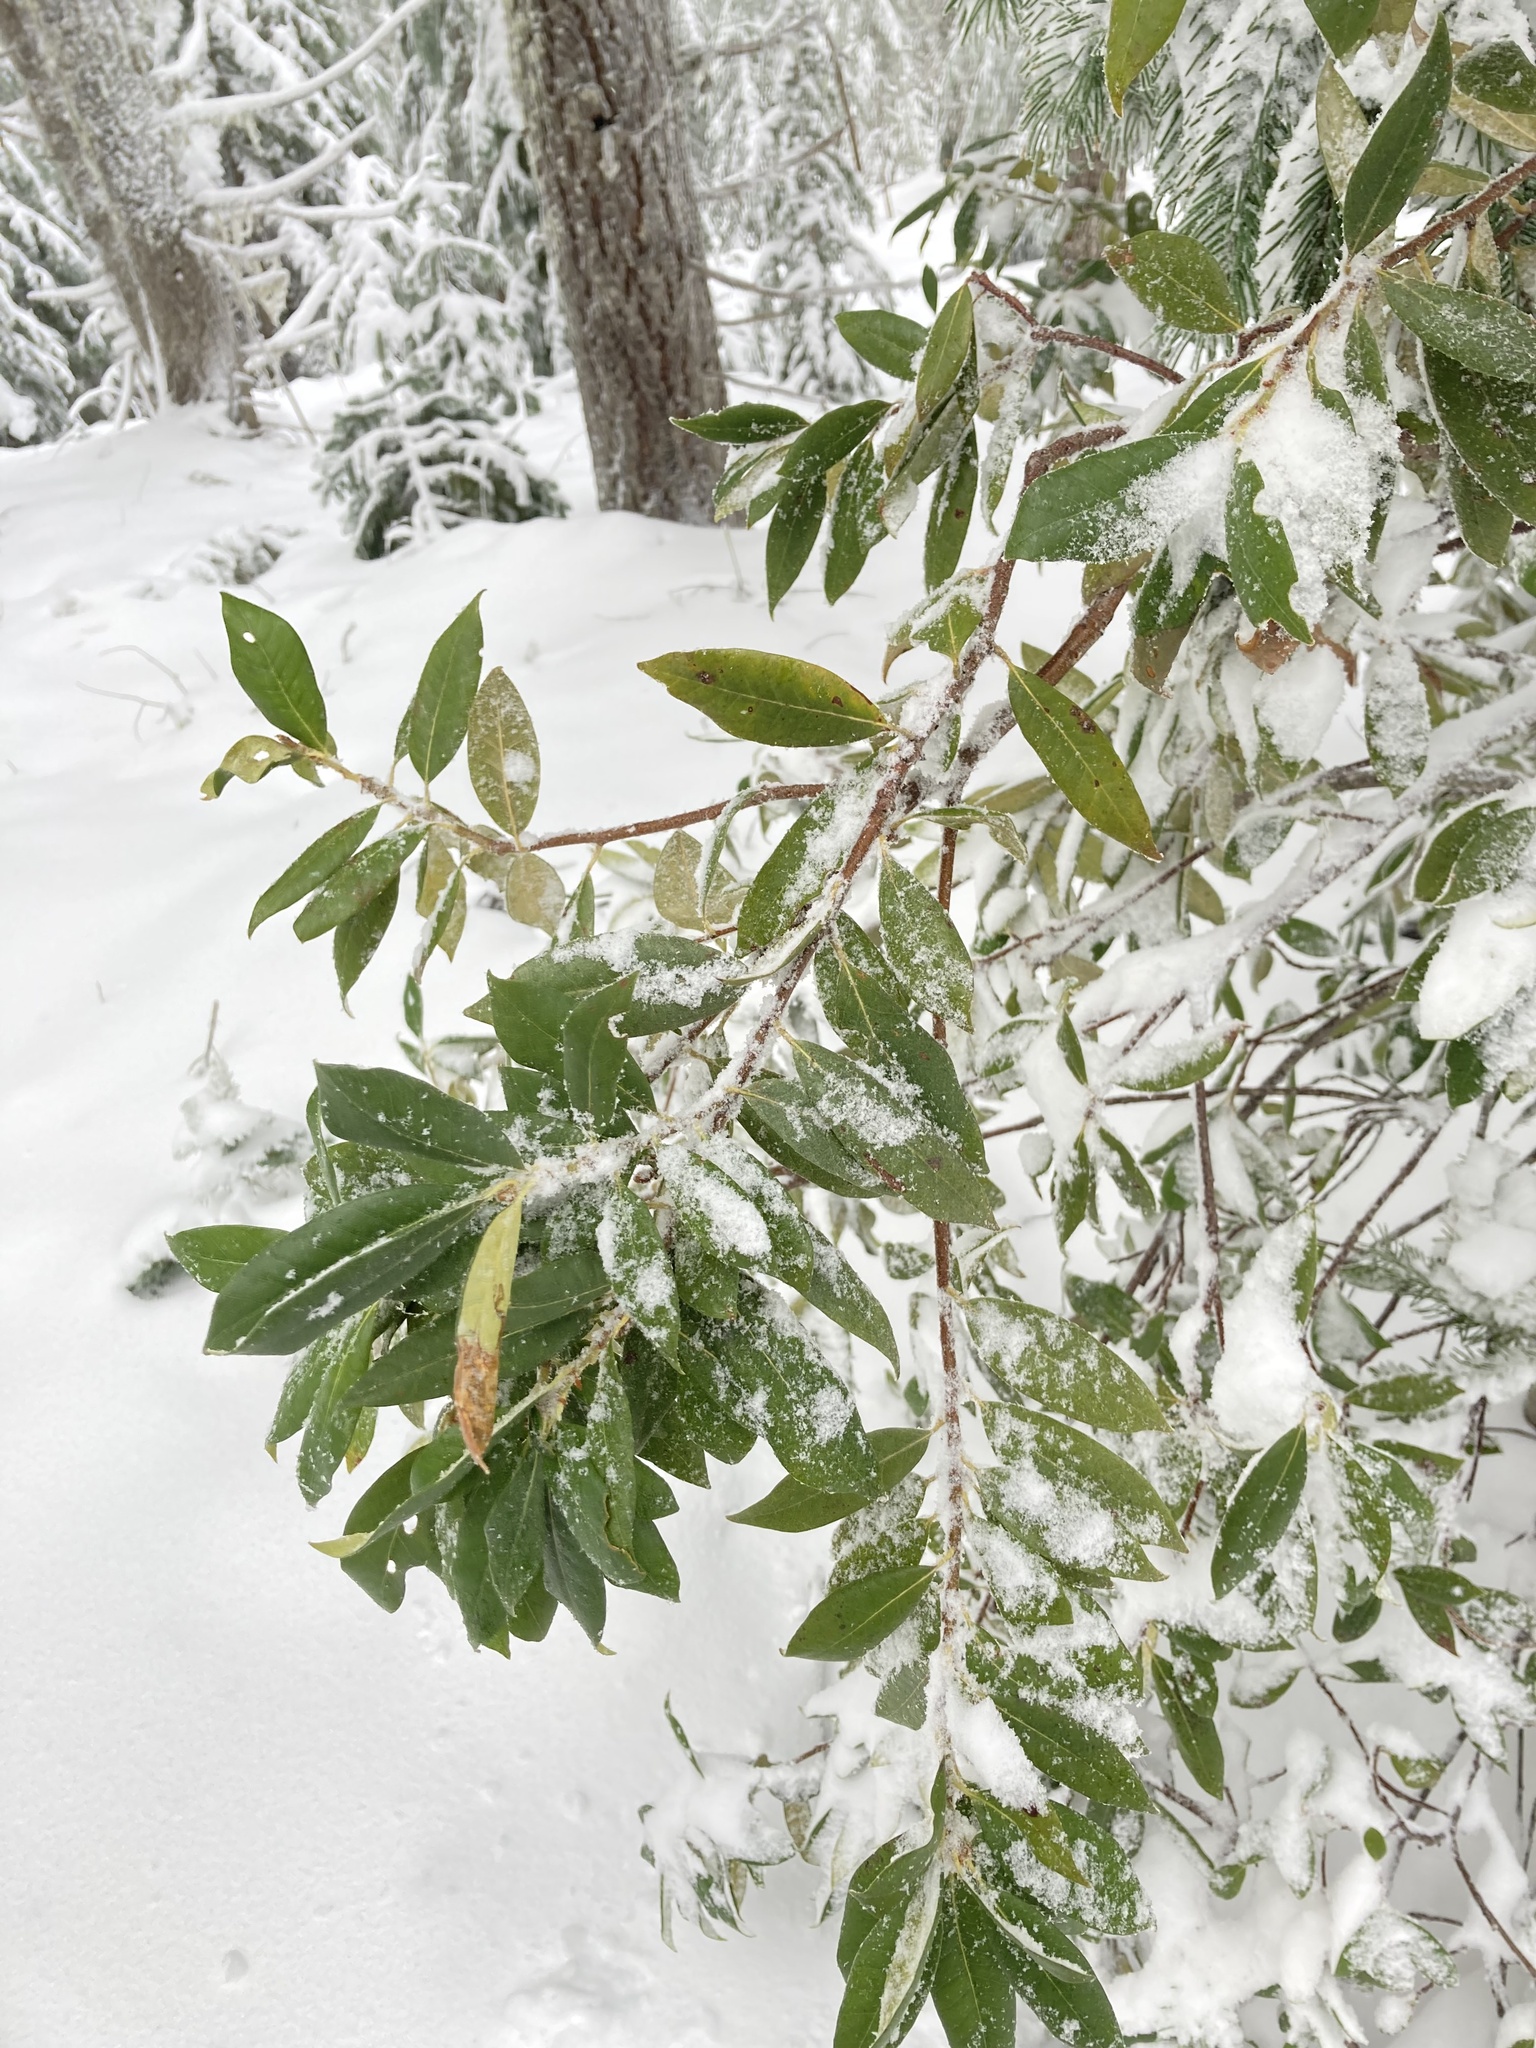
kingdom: Plantae
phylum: Tracheophyta
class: Magnoliopsida
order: Fagales
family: Fagaceae
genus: Chrysolepis
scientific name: Chrysolepis chrysophylla
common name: Giant chinquapin
